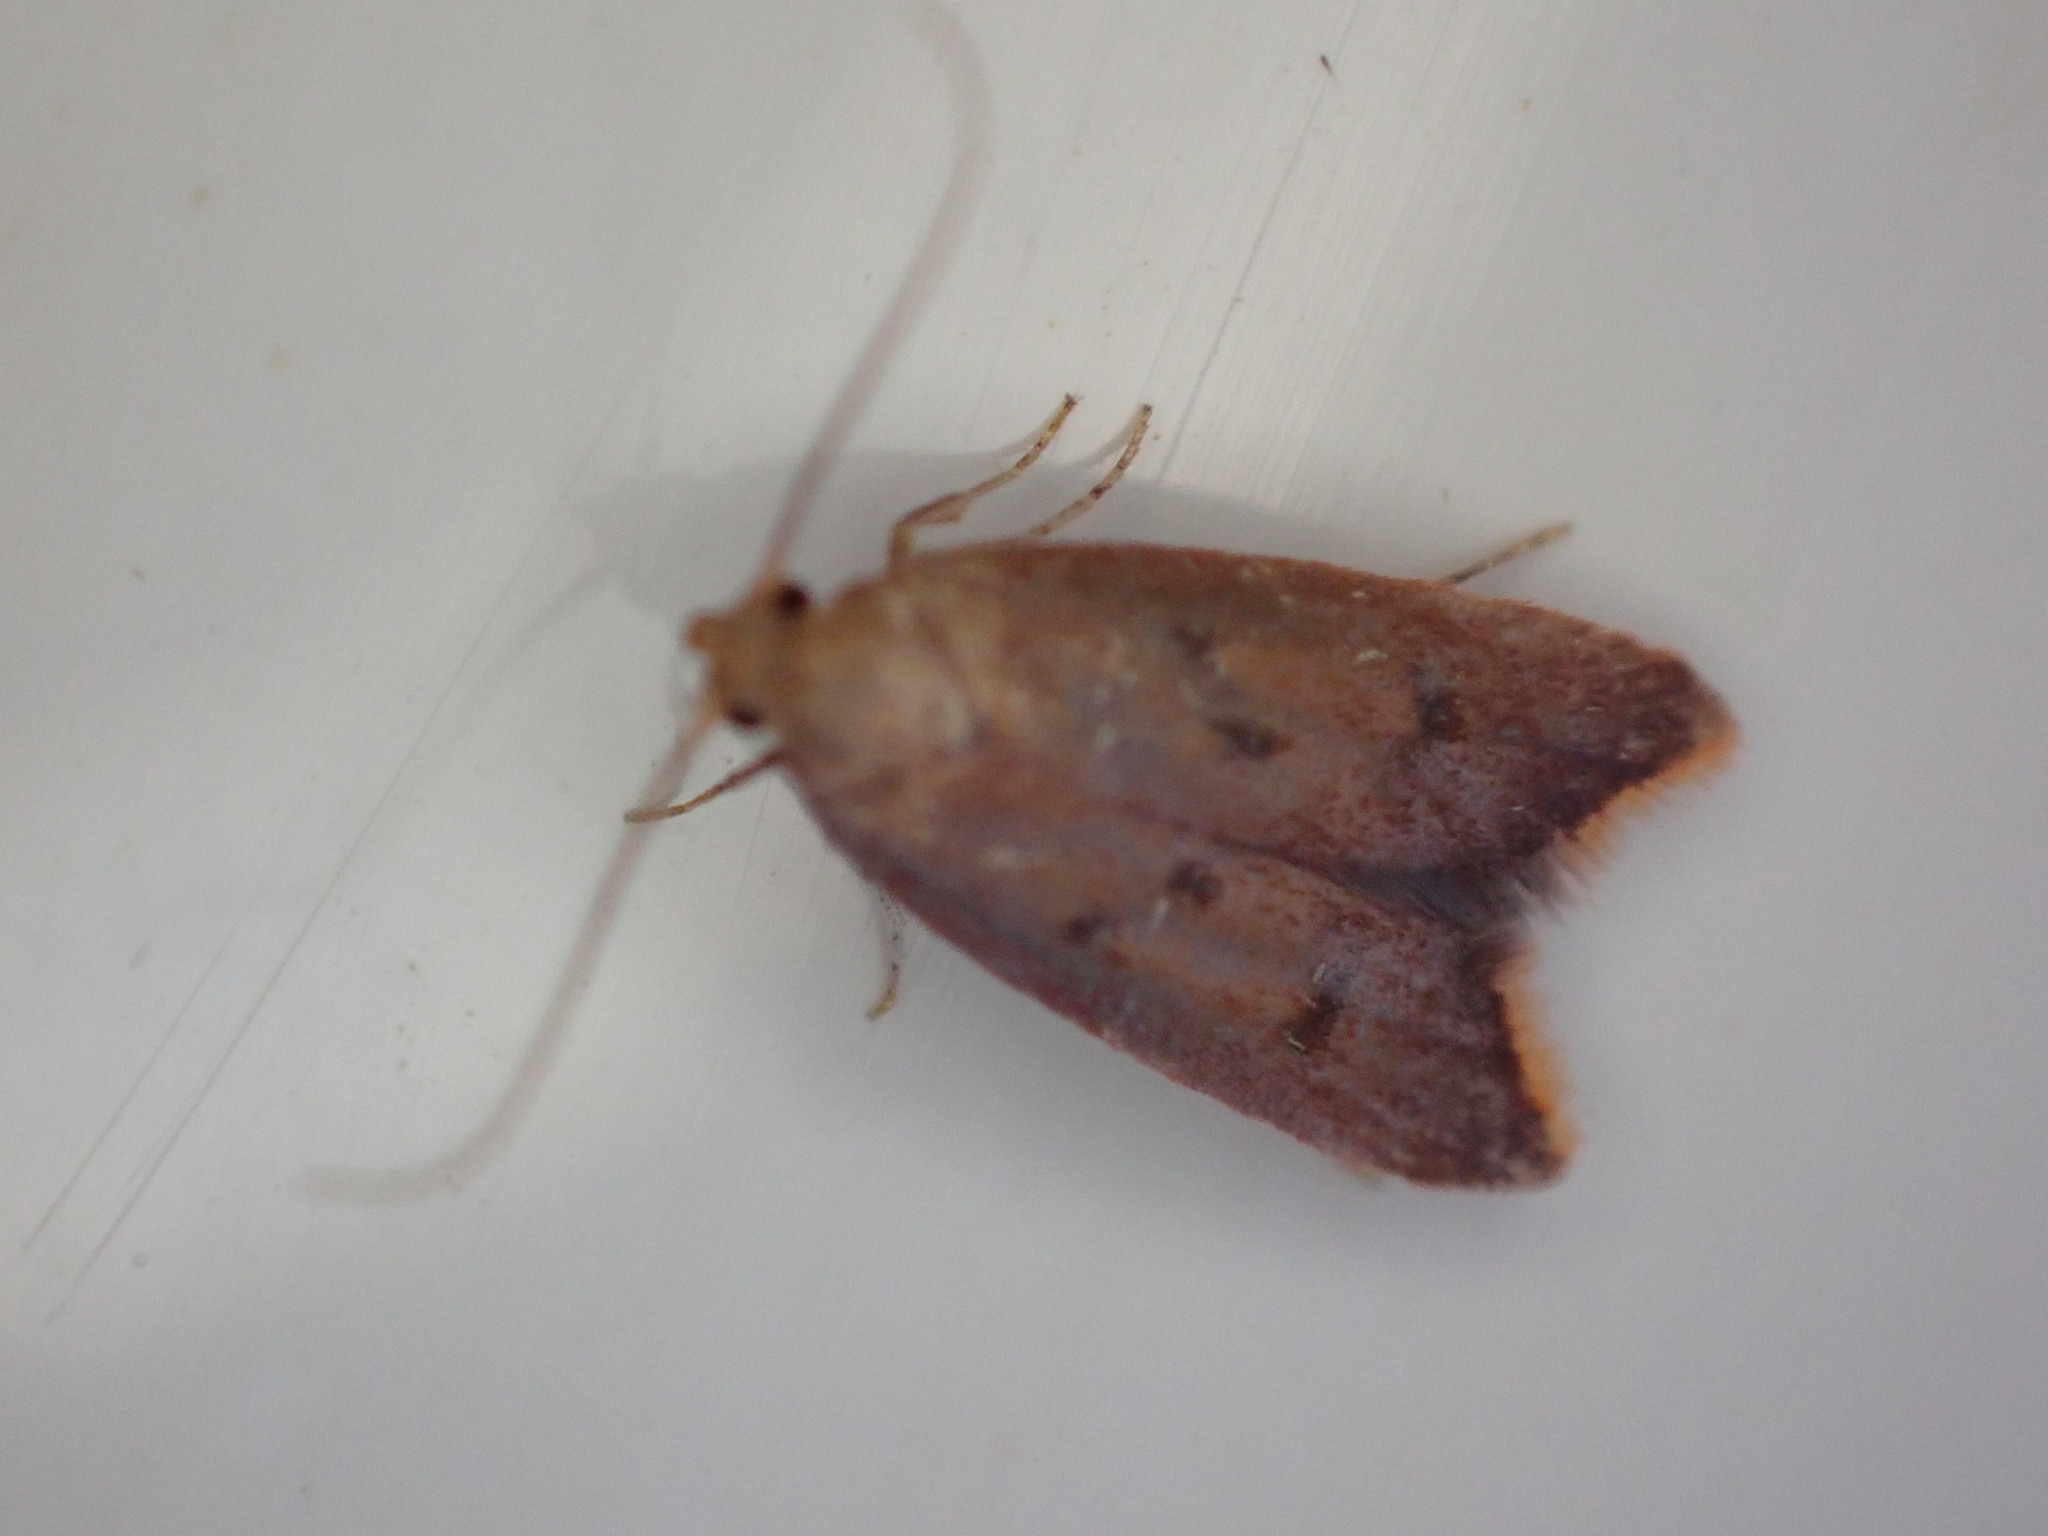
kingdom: Animalia
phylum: Arthropoda
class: Insecta
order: Lepidoptera
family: Oecophoridae
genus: Tachystola
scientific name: Tachystola acroxantha
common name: Ruddy streak
